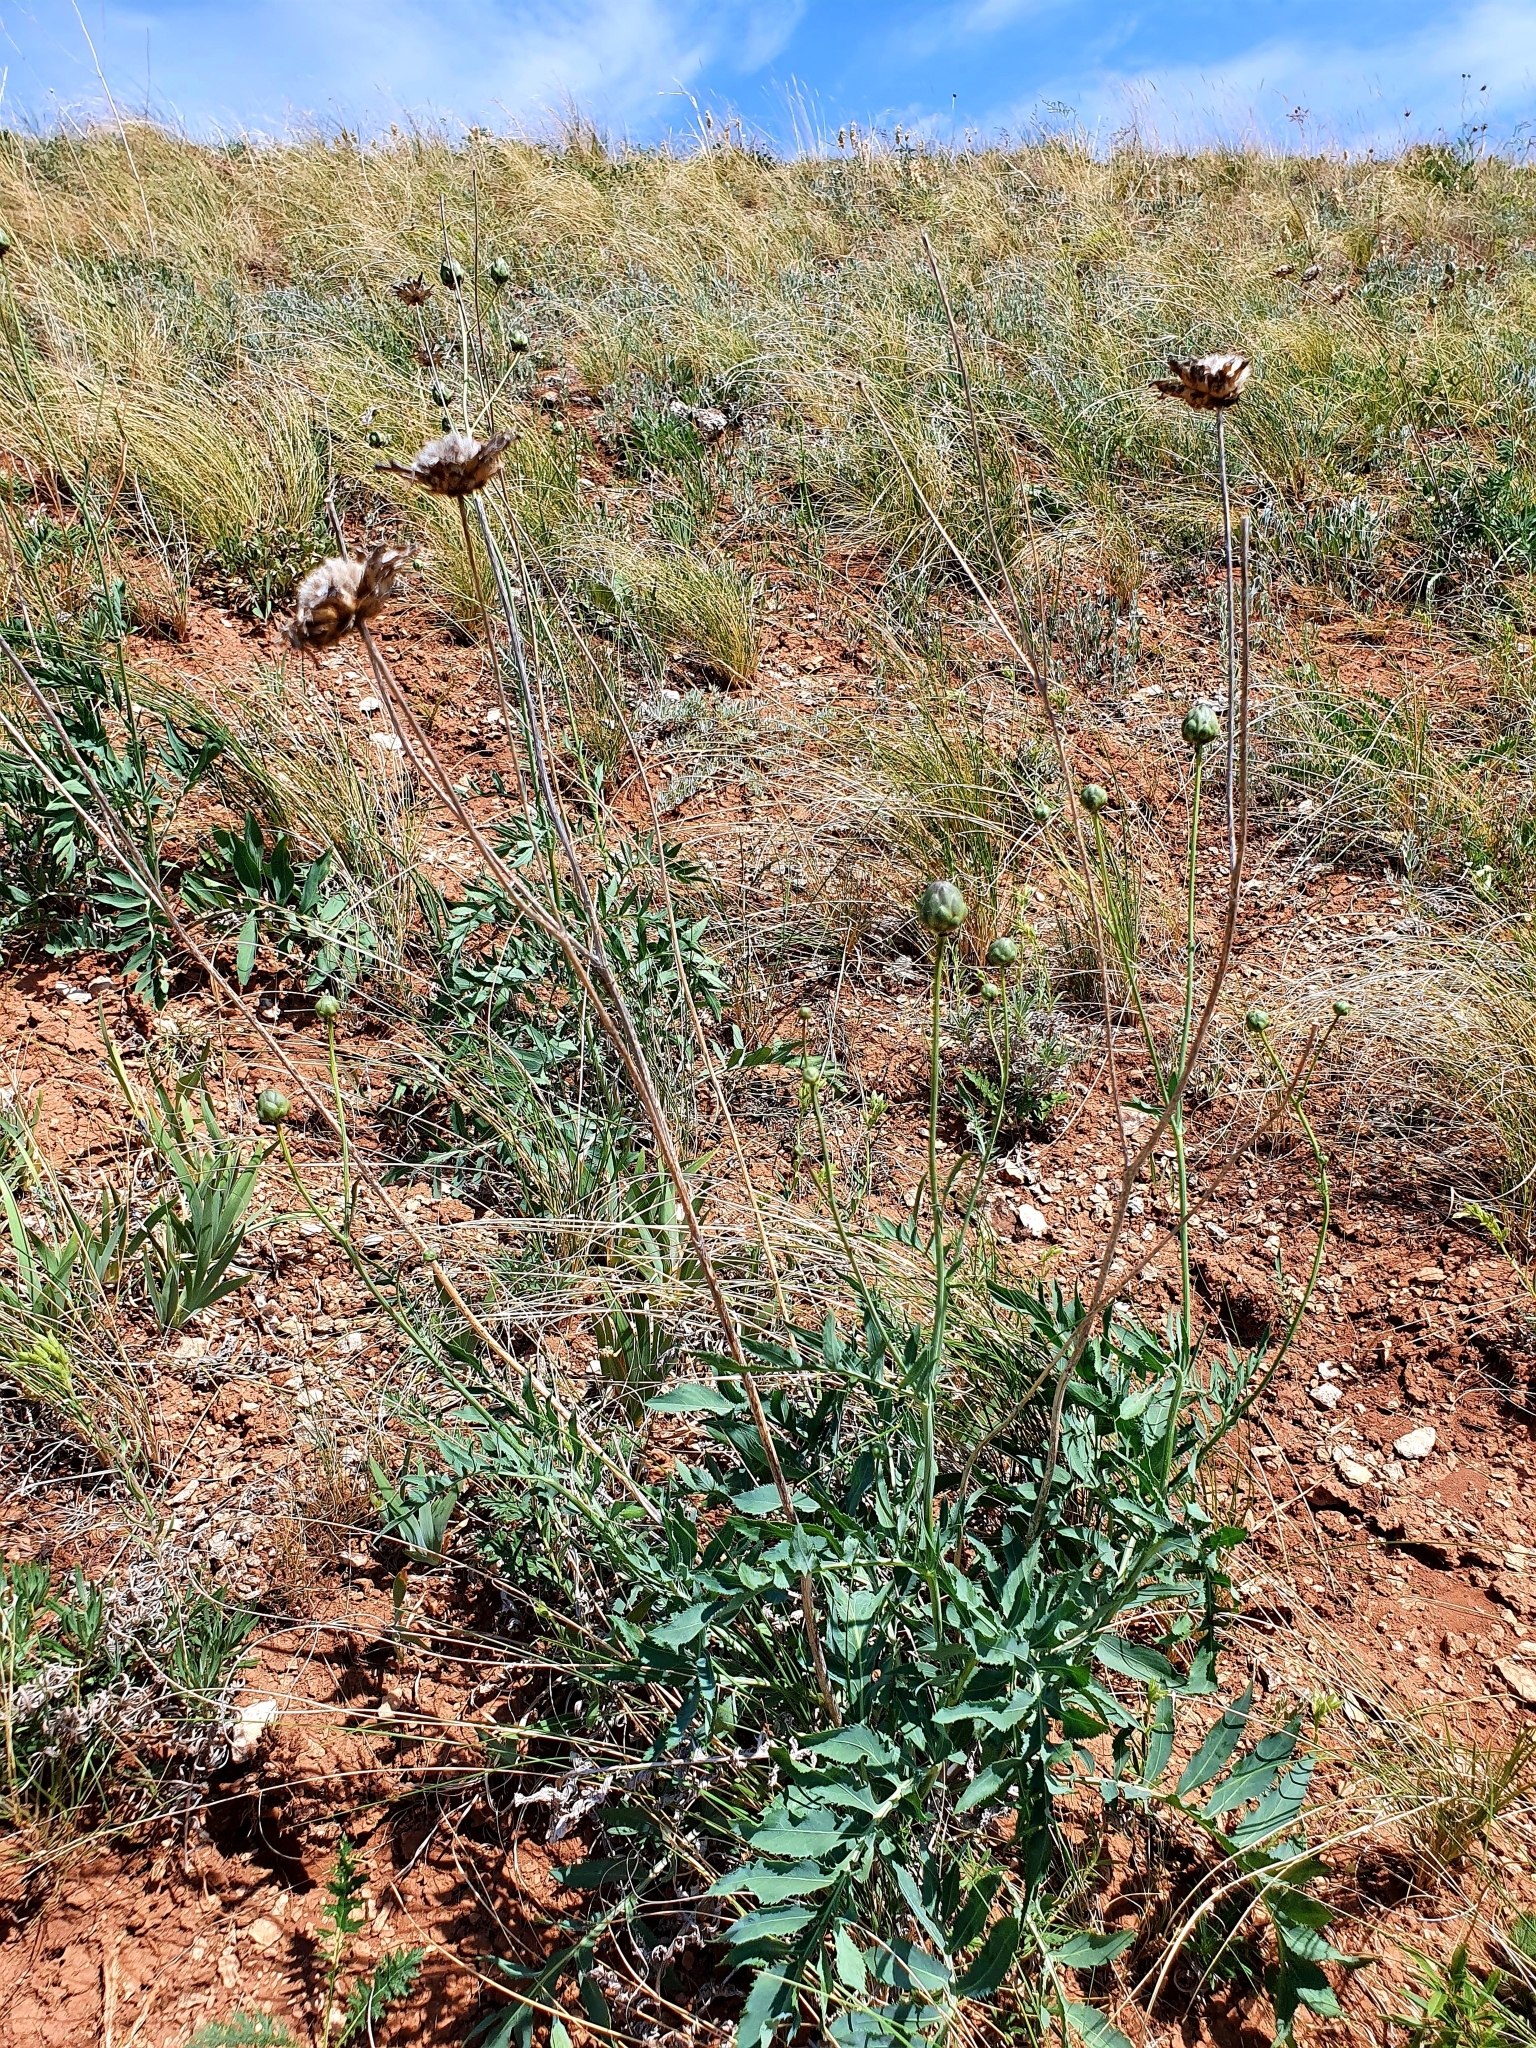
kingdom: Plantae
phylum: Tracheophyta
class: Magnoliopsida
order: Asterales
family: Asteraceae
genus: Rhaponticoides
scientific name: Rhaponticoides ruthenica
